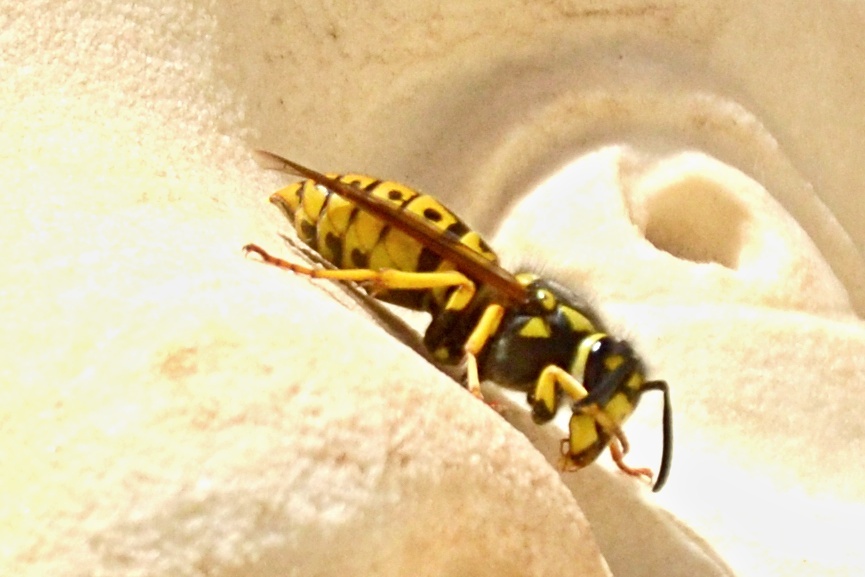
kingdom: Animalia
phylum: Arthropoda
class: Insecta
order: Hymenoptera
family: Vespidae
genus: Vespula
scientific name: Vespula germanica
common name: German wasp
